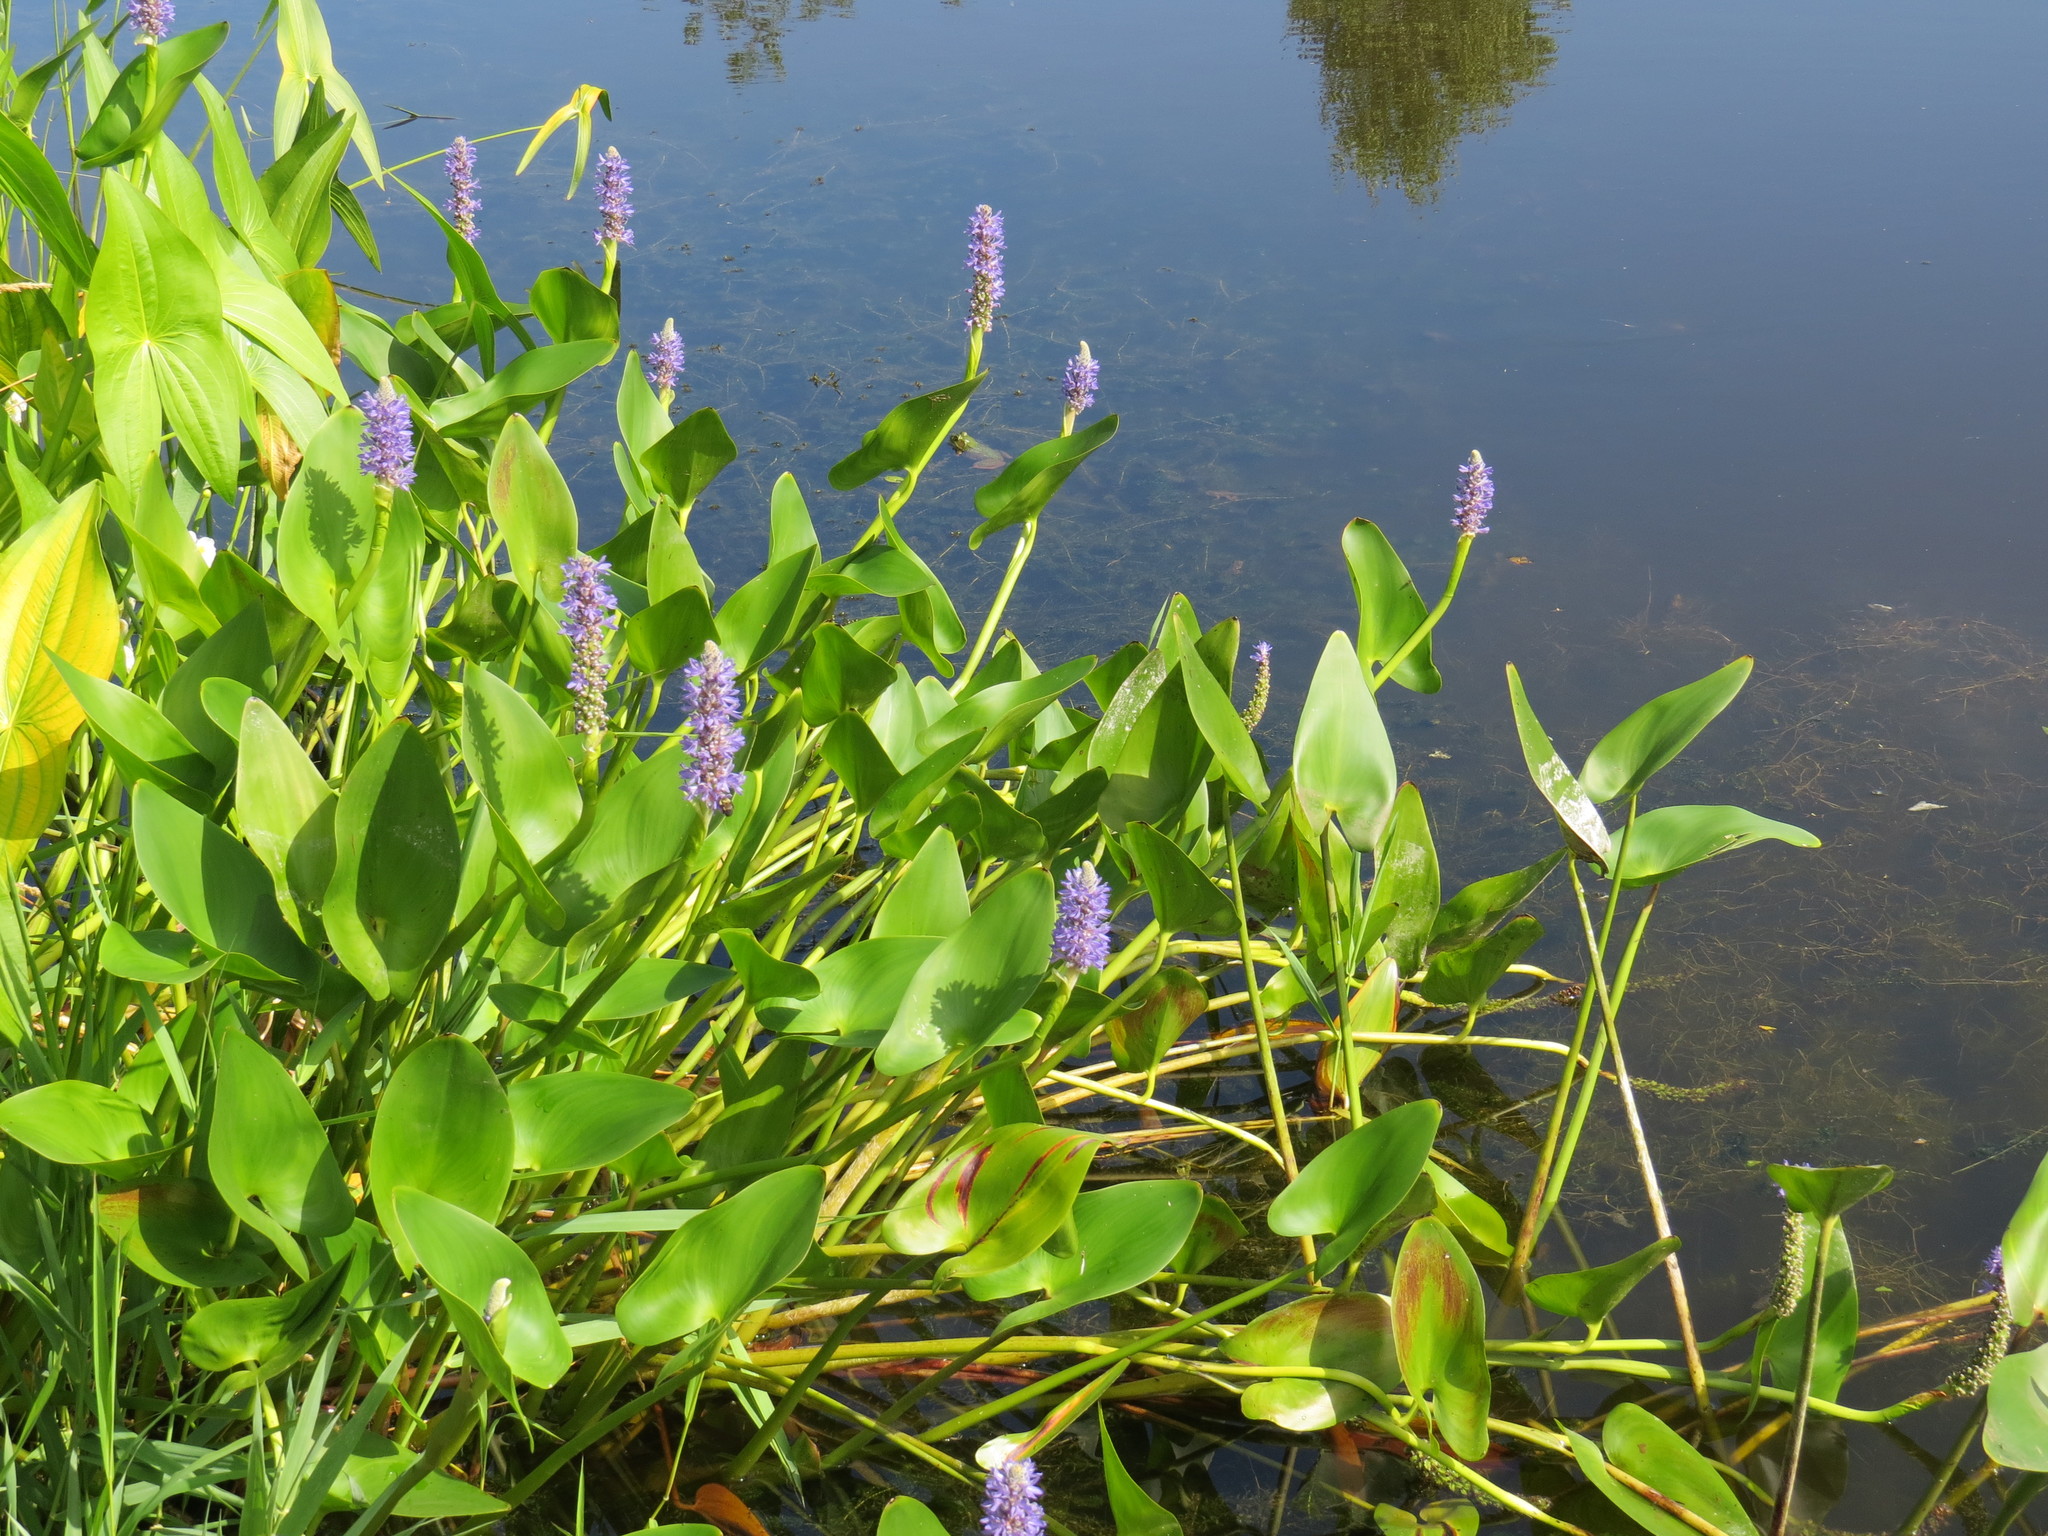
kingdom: Plantae
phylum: Tracheophyta
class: Liliopsida
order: Commelinales
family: Pontederiaceae
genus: Pontederia
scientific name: Pontederia cordata
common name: Pickerelweed
